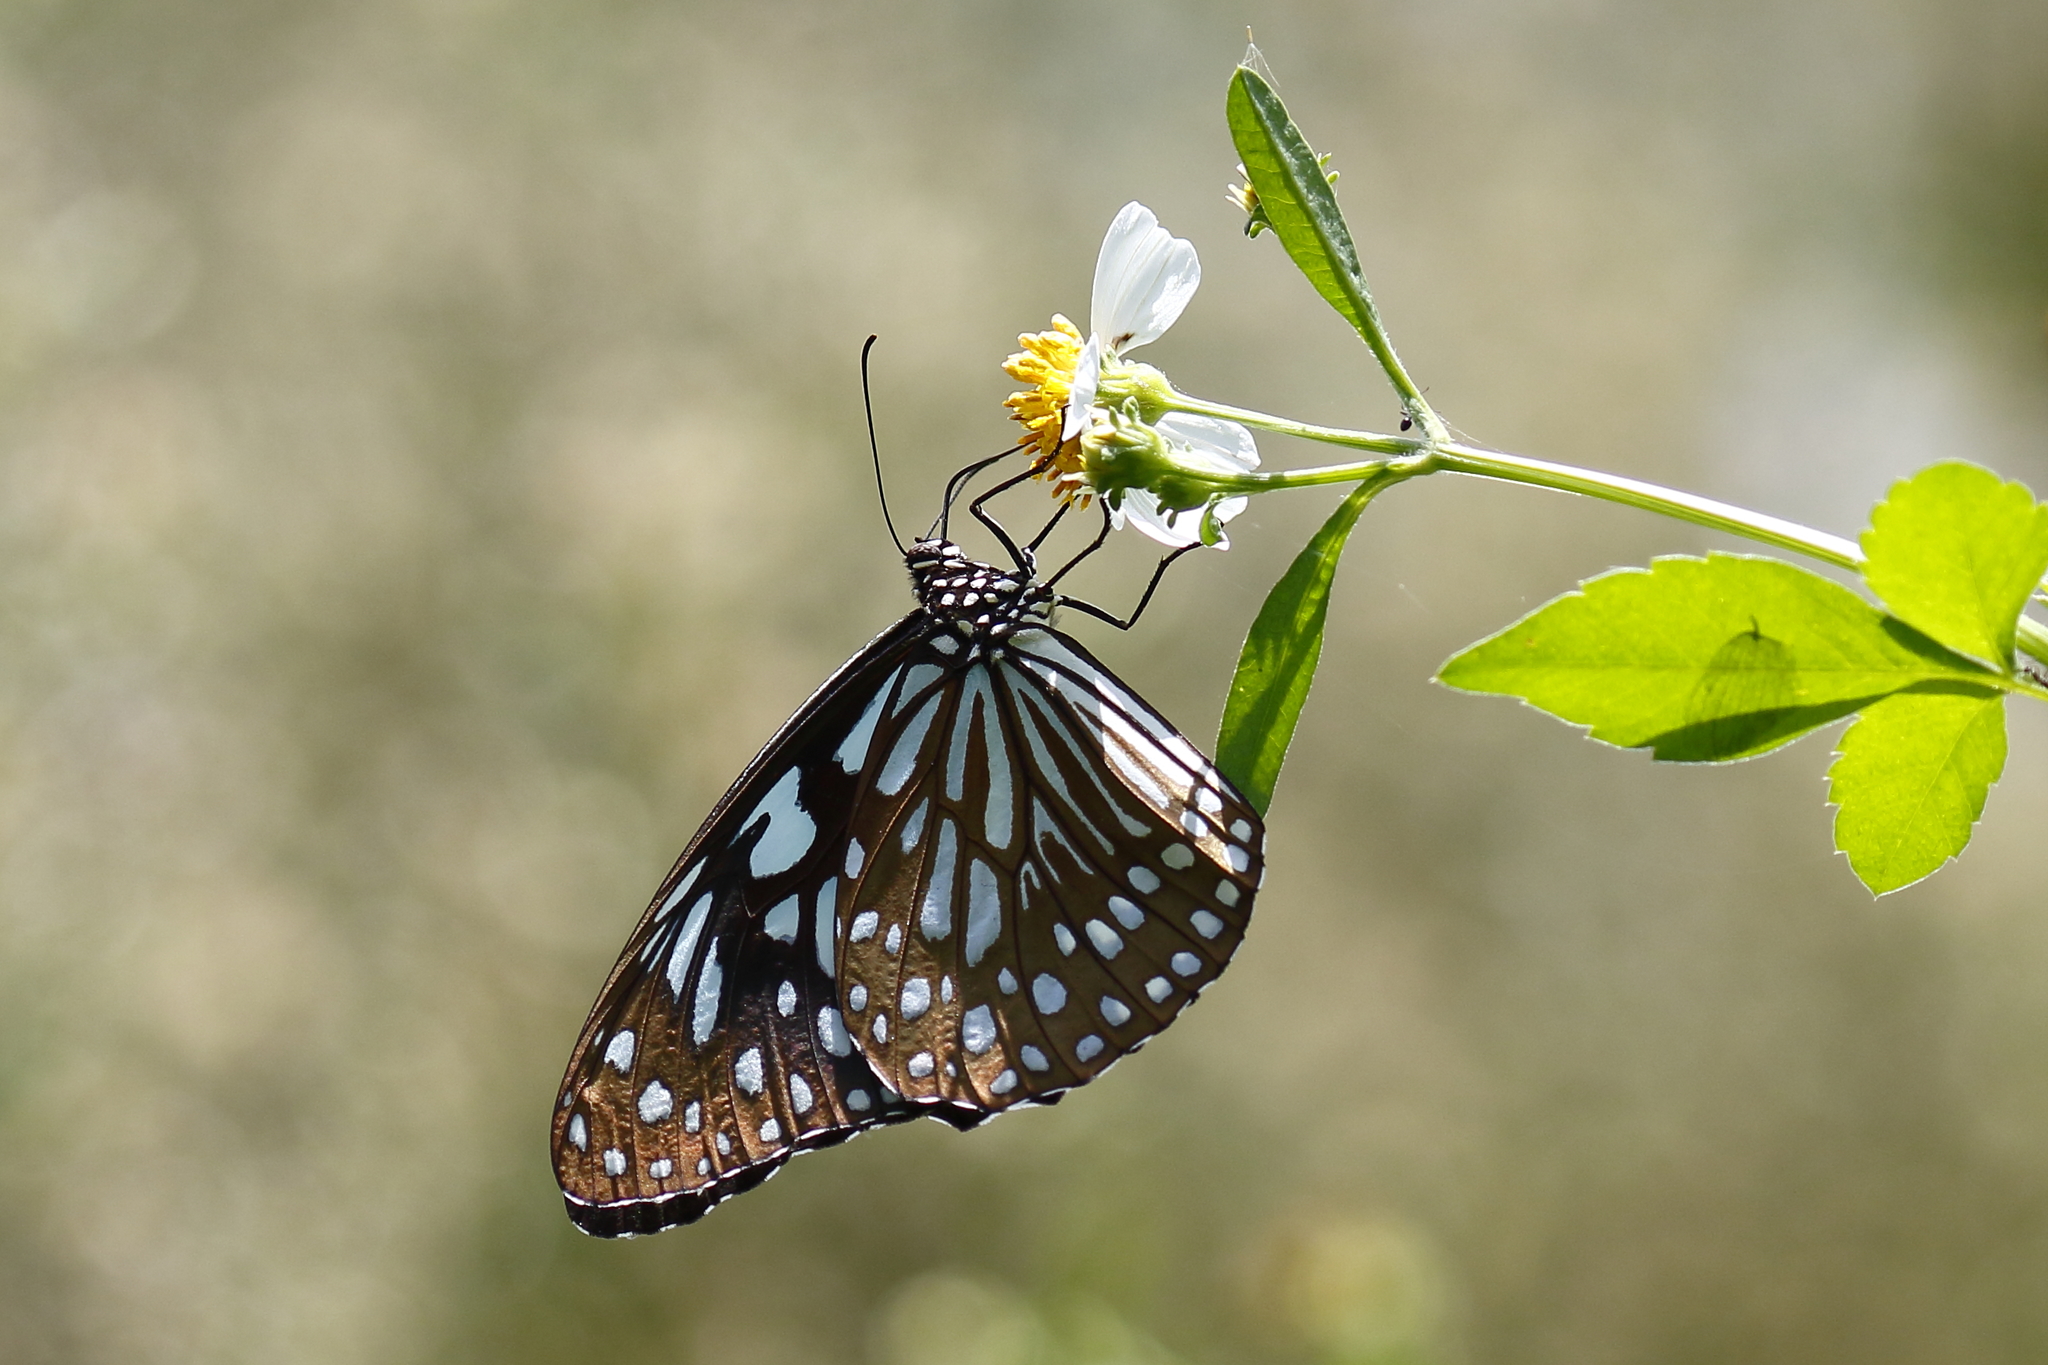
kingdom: Animalia
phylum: Arthropoda
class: Insecta
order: Lepidoptera
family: Nymphalidae
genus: Tirumala
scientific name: Tirumala limniace
